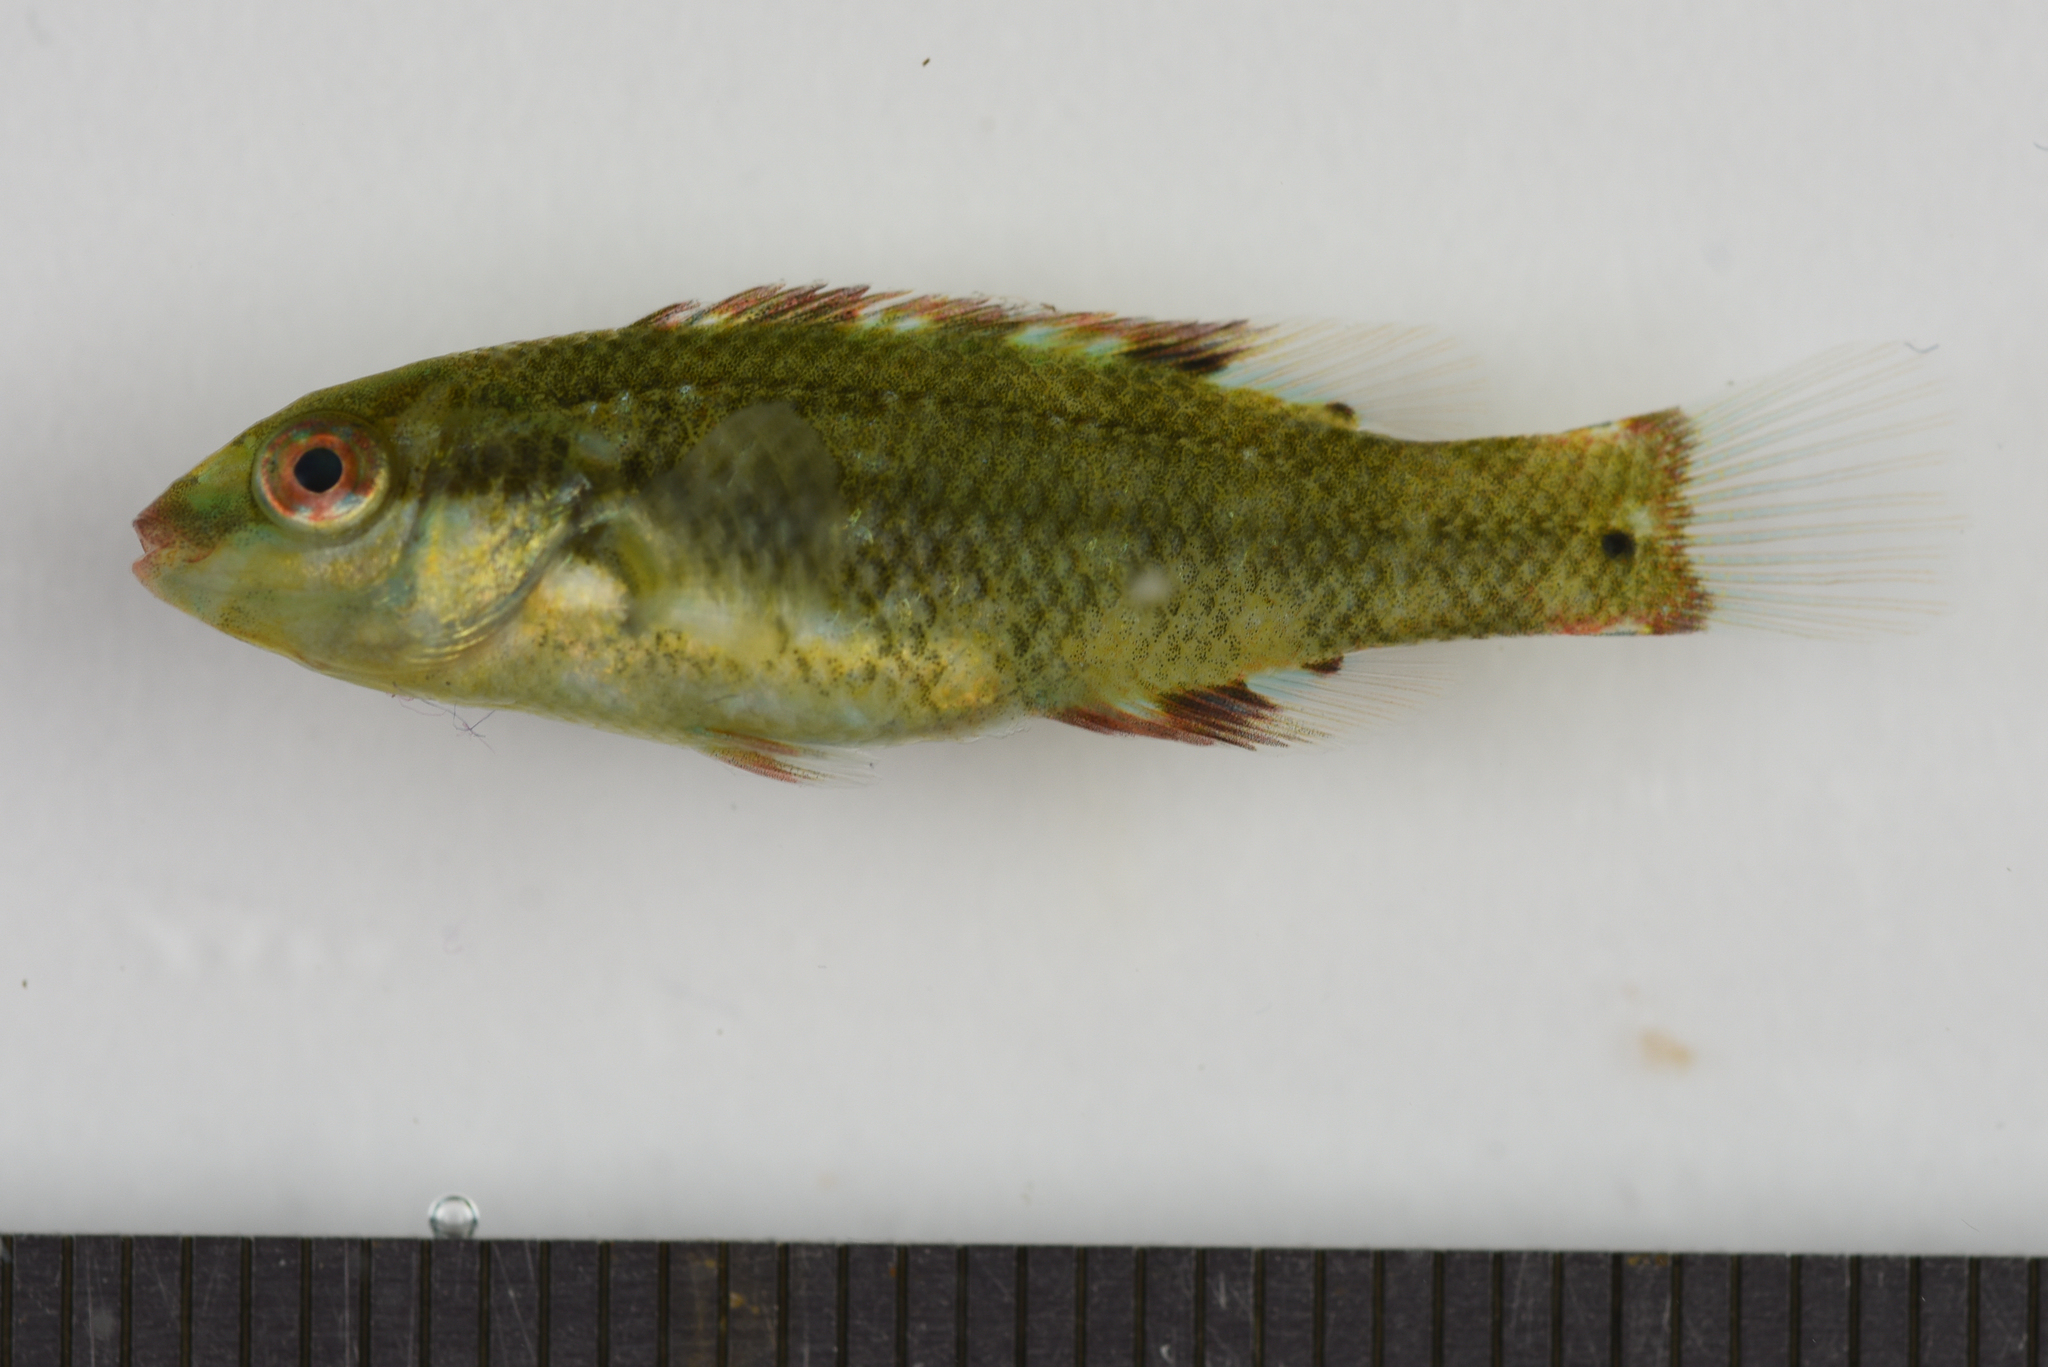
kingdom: Animalia
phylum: Chordata
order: Perciformes
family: Labridae
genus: Symphodus
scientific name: Symphodus bailloni
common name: Baillon's wrasse
